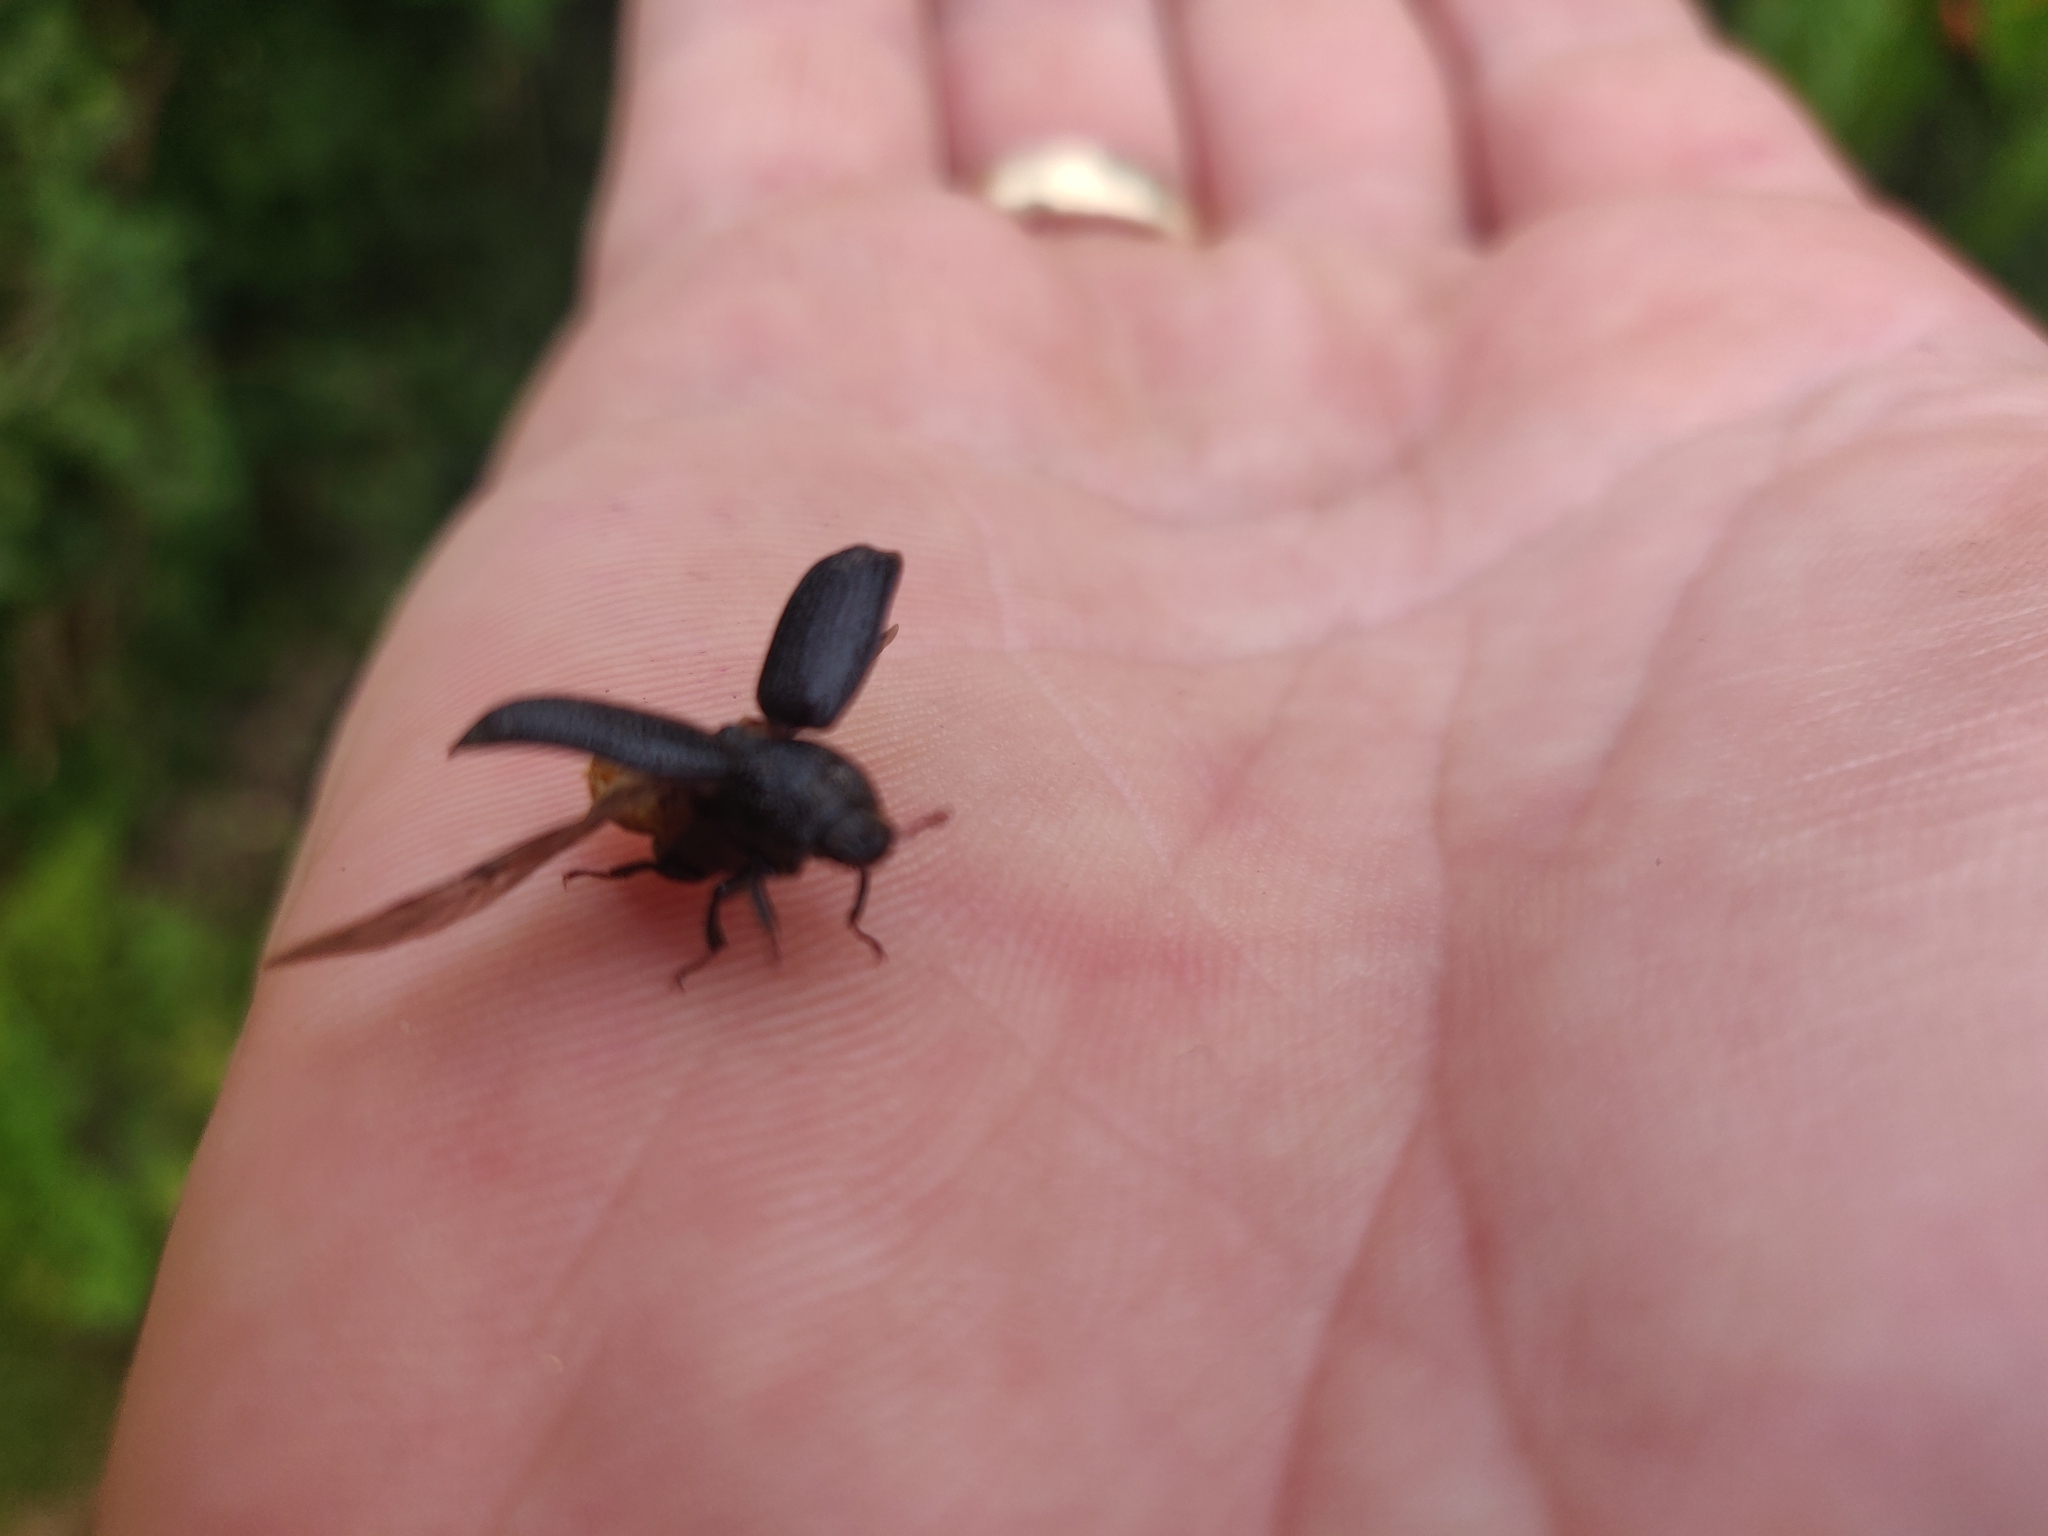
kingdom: Animalia
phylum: Arthropoda
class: Insecta
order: Coleoptera
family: Lucanidae
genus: Sinodendron
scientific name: Sinodendron cylindricum
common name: Rhinoceros beetle
